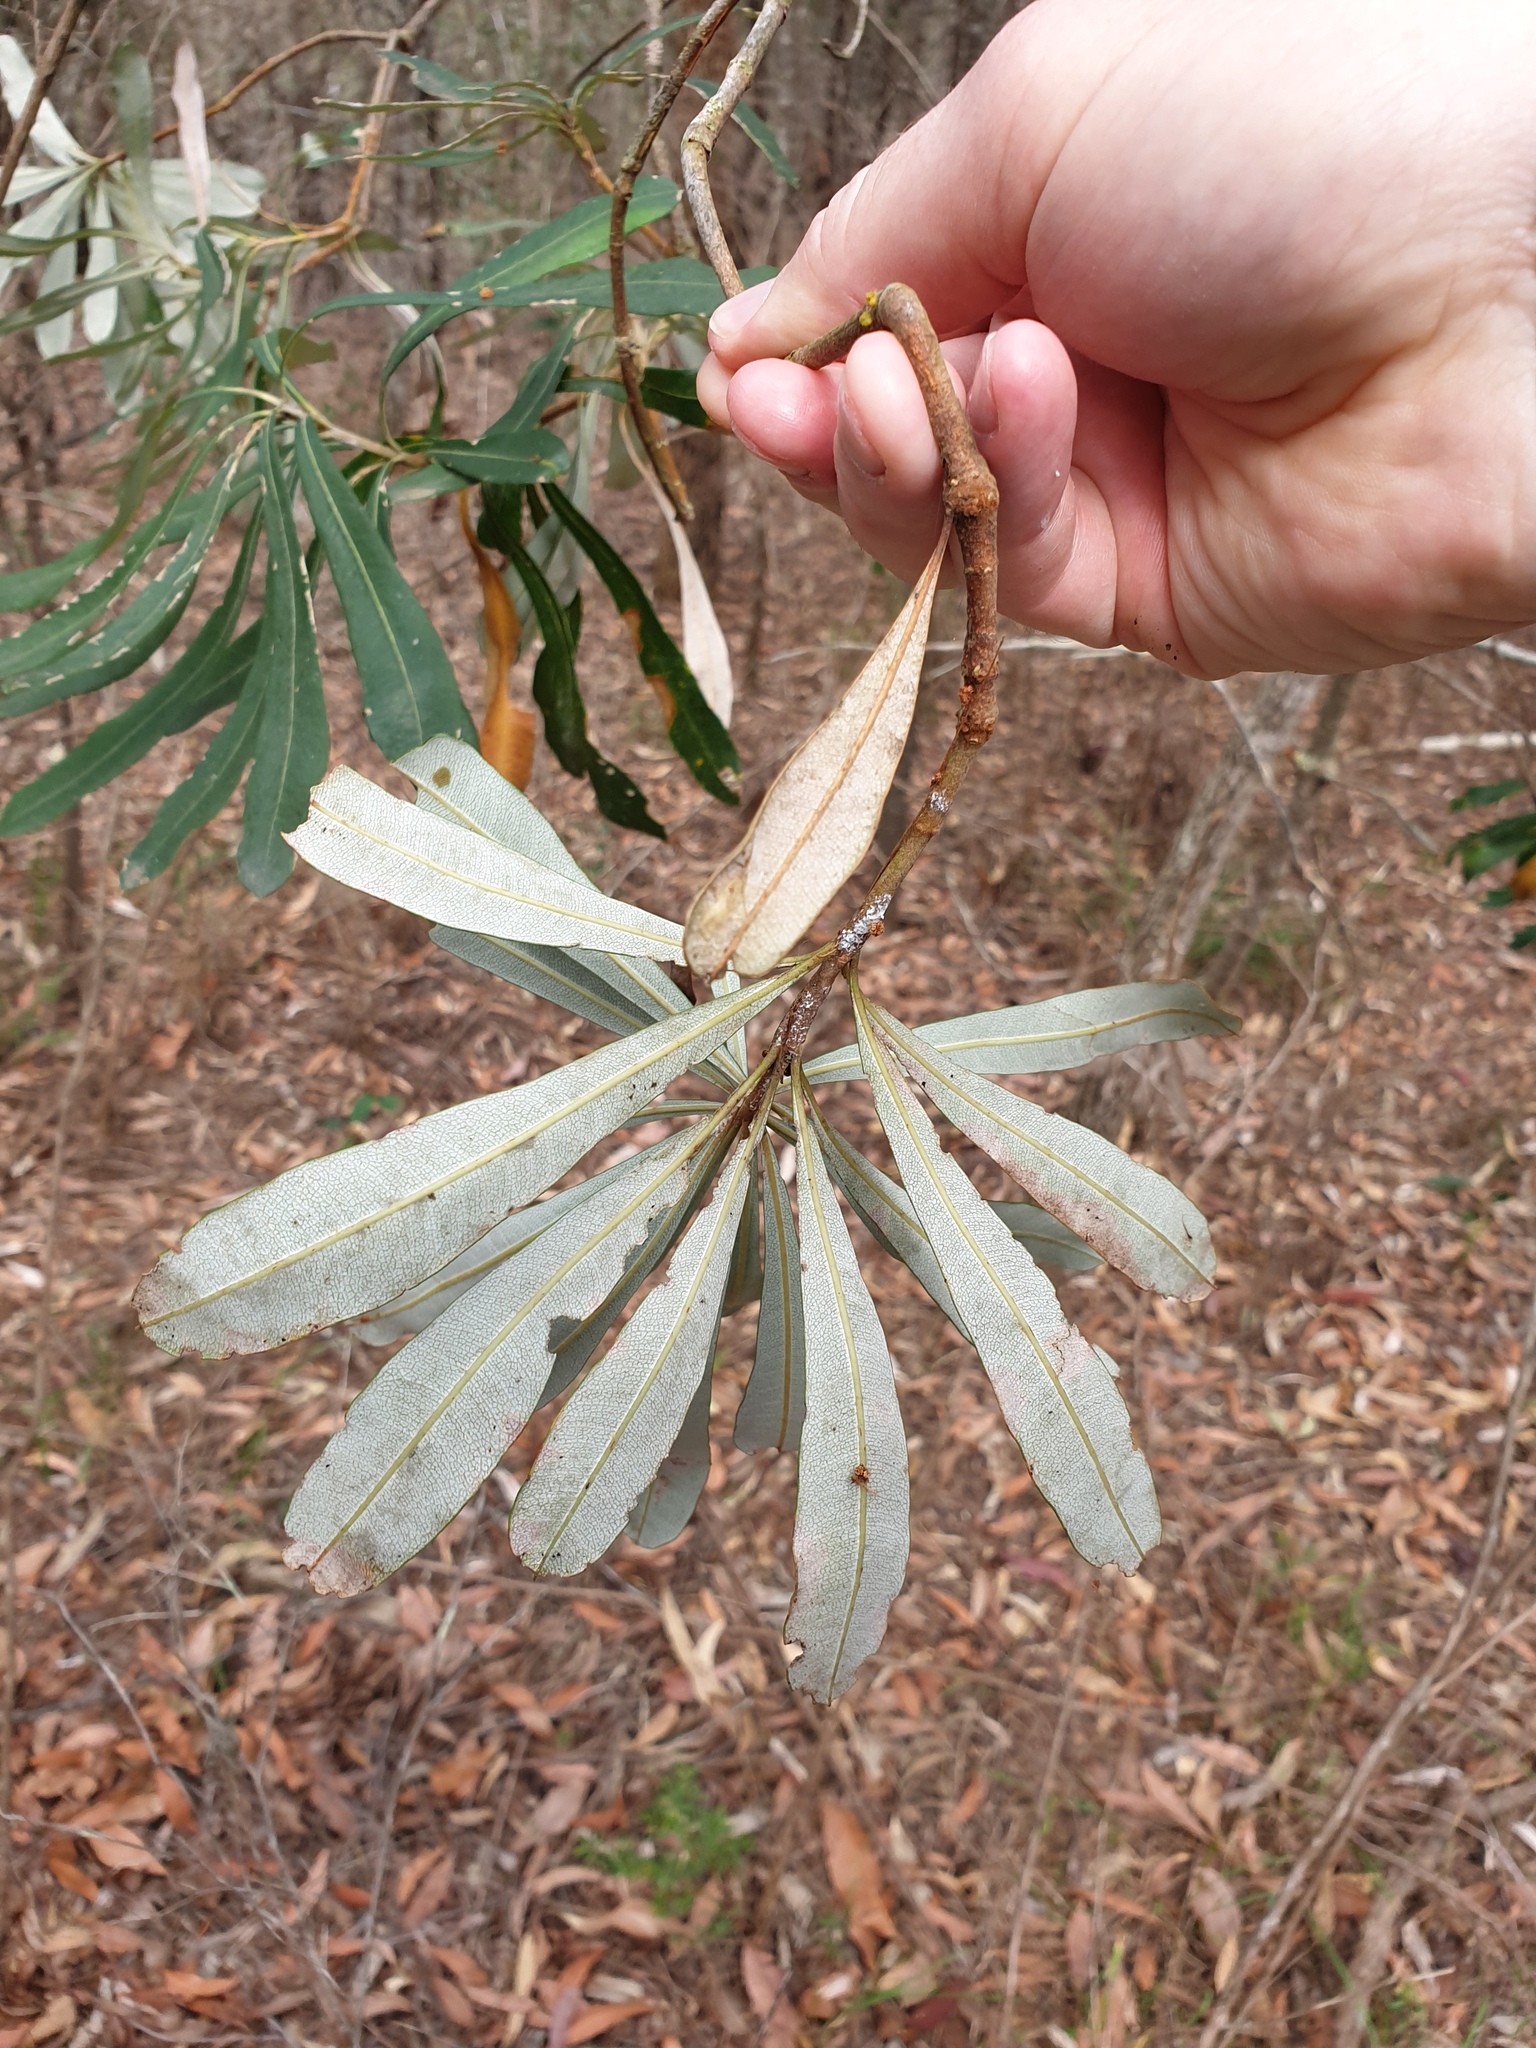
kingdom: Plantae
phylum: Tracheophyta
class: Magnoliopsida
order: Proteales
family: Proteaceae
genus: Banksia
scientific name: Banksia integrifolia
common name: White-honeysuckle
